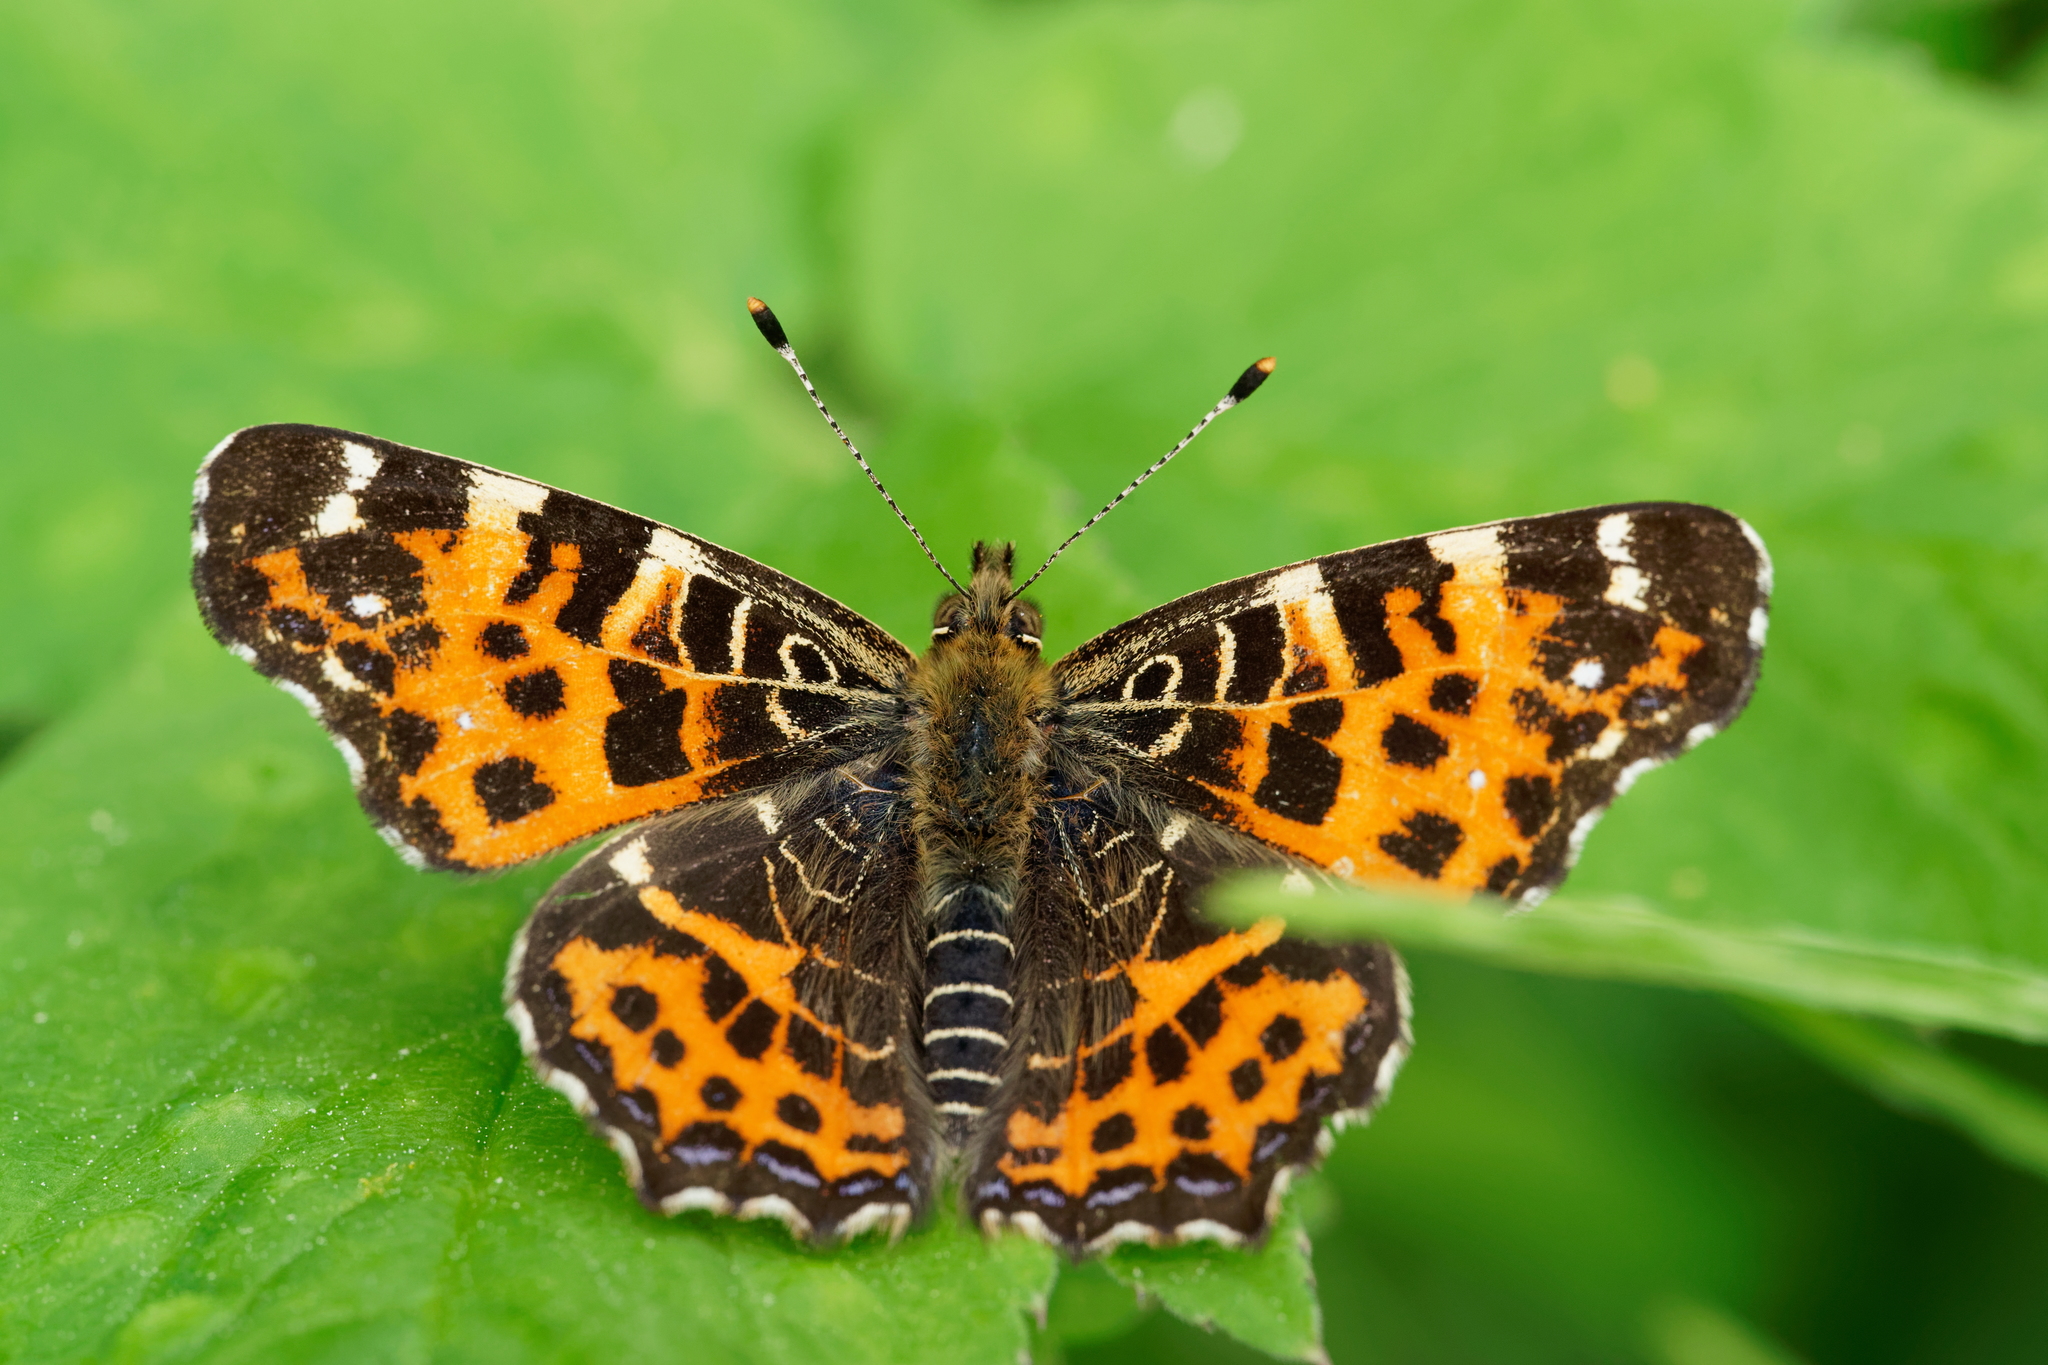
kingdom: Animalia
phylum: Arthropoda
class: Insecta
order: Lepidoptera
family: Nymphalidae
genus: Araschnia
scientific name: Araschnia levana
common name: Map butterfly
